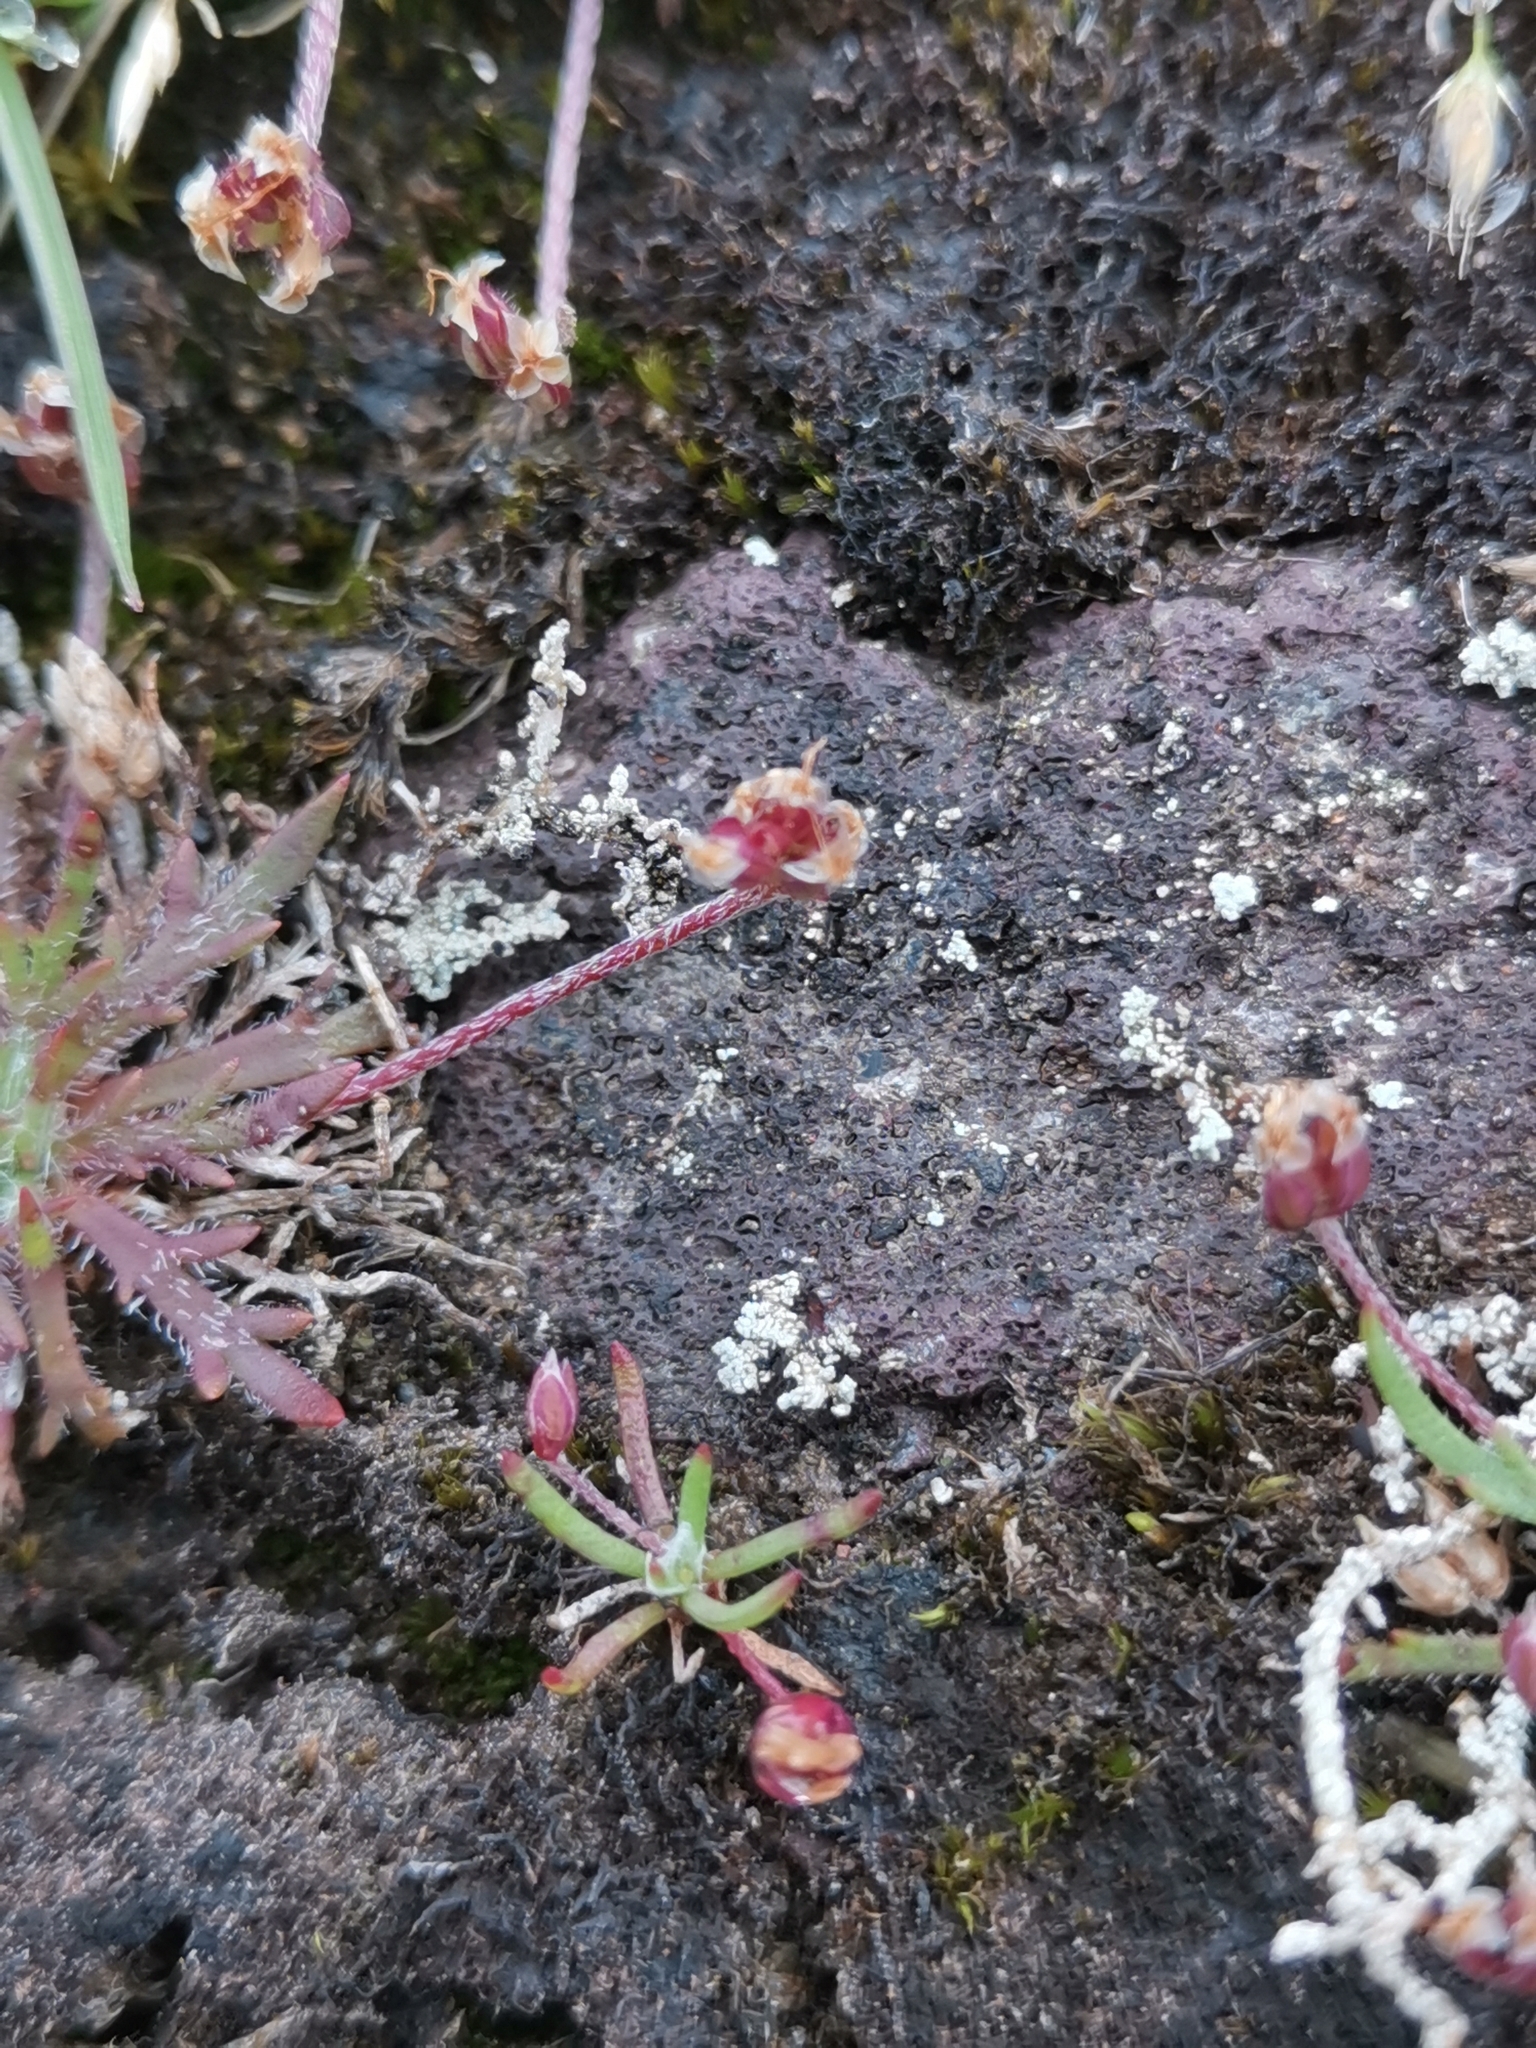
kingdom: Plantae
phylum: Tracheophyta
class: Magnoliopsida
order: Lamiales
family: Plantaginaceae
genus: Plantago
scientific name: Plantago coronopus
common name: Buck's-horn plantain
